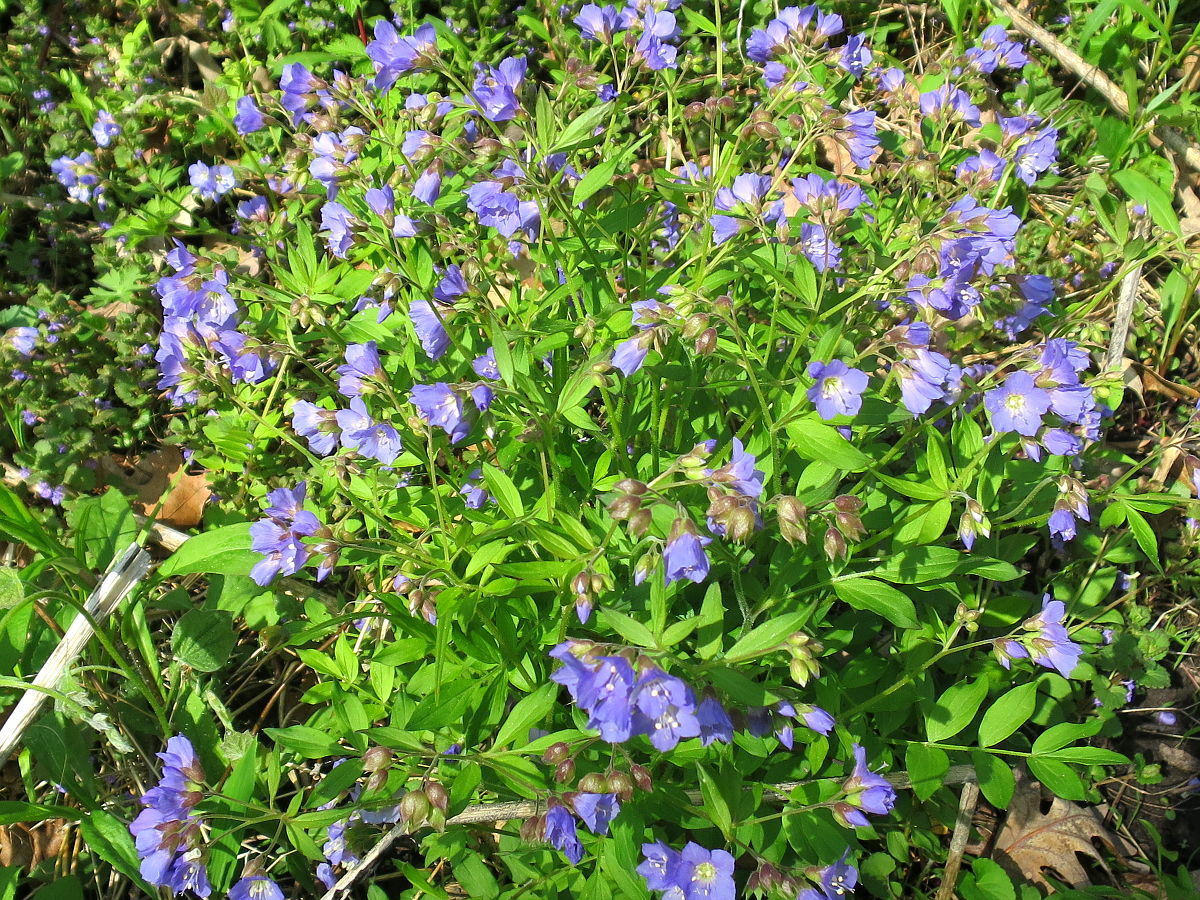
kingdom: Plantae
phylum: Tracheophyta
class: Magnoliopsida
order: Ericales
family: Polemoniaceae
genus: Polemonium
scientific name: Polemonium reptans
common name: Creeping jacob's-ladder
